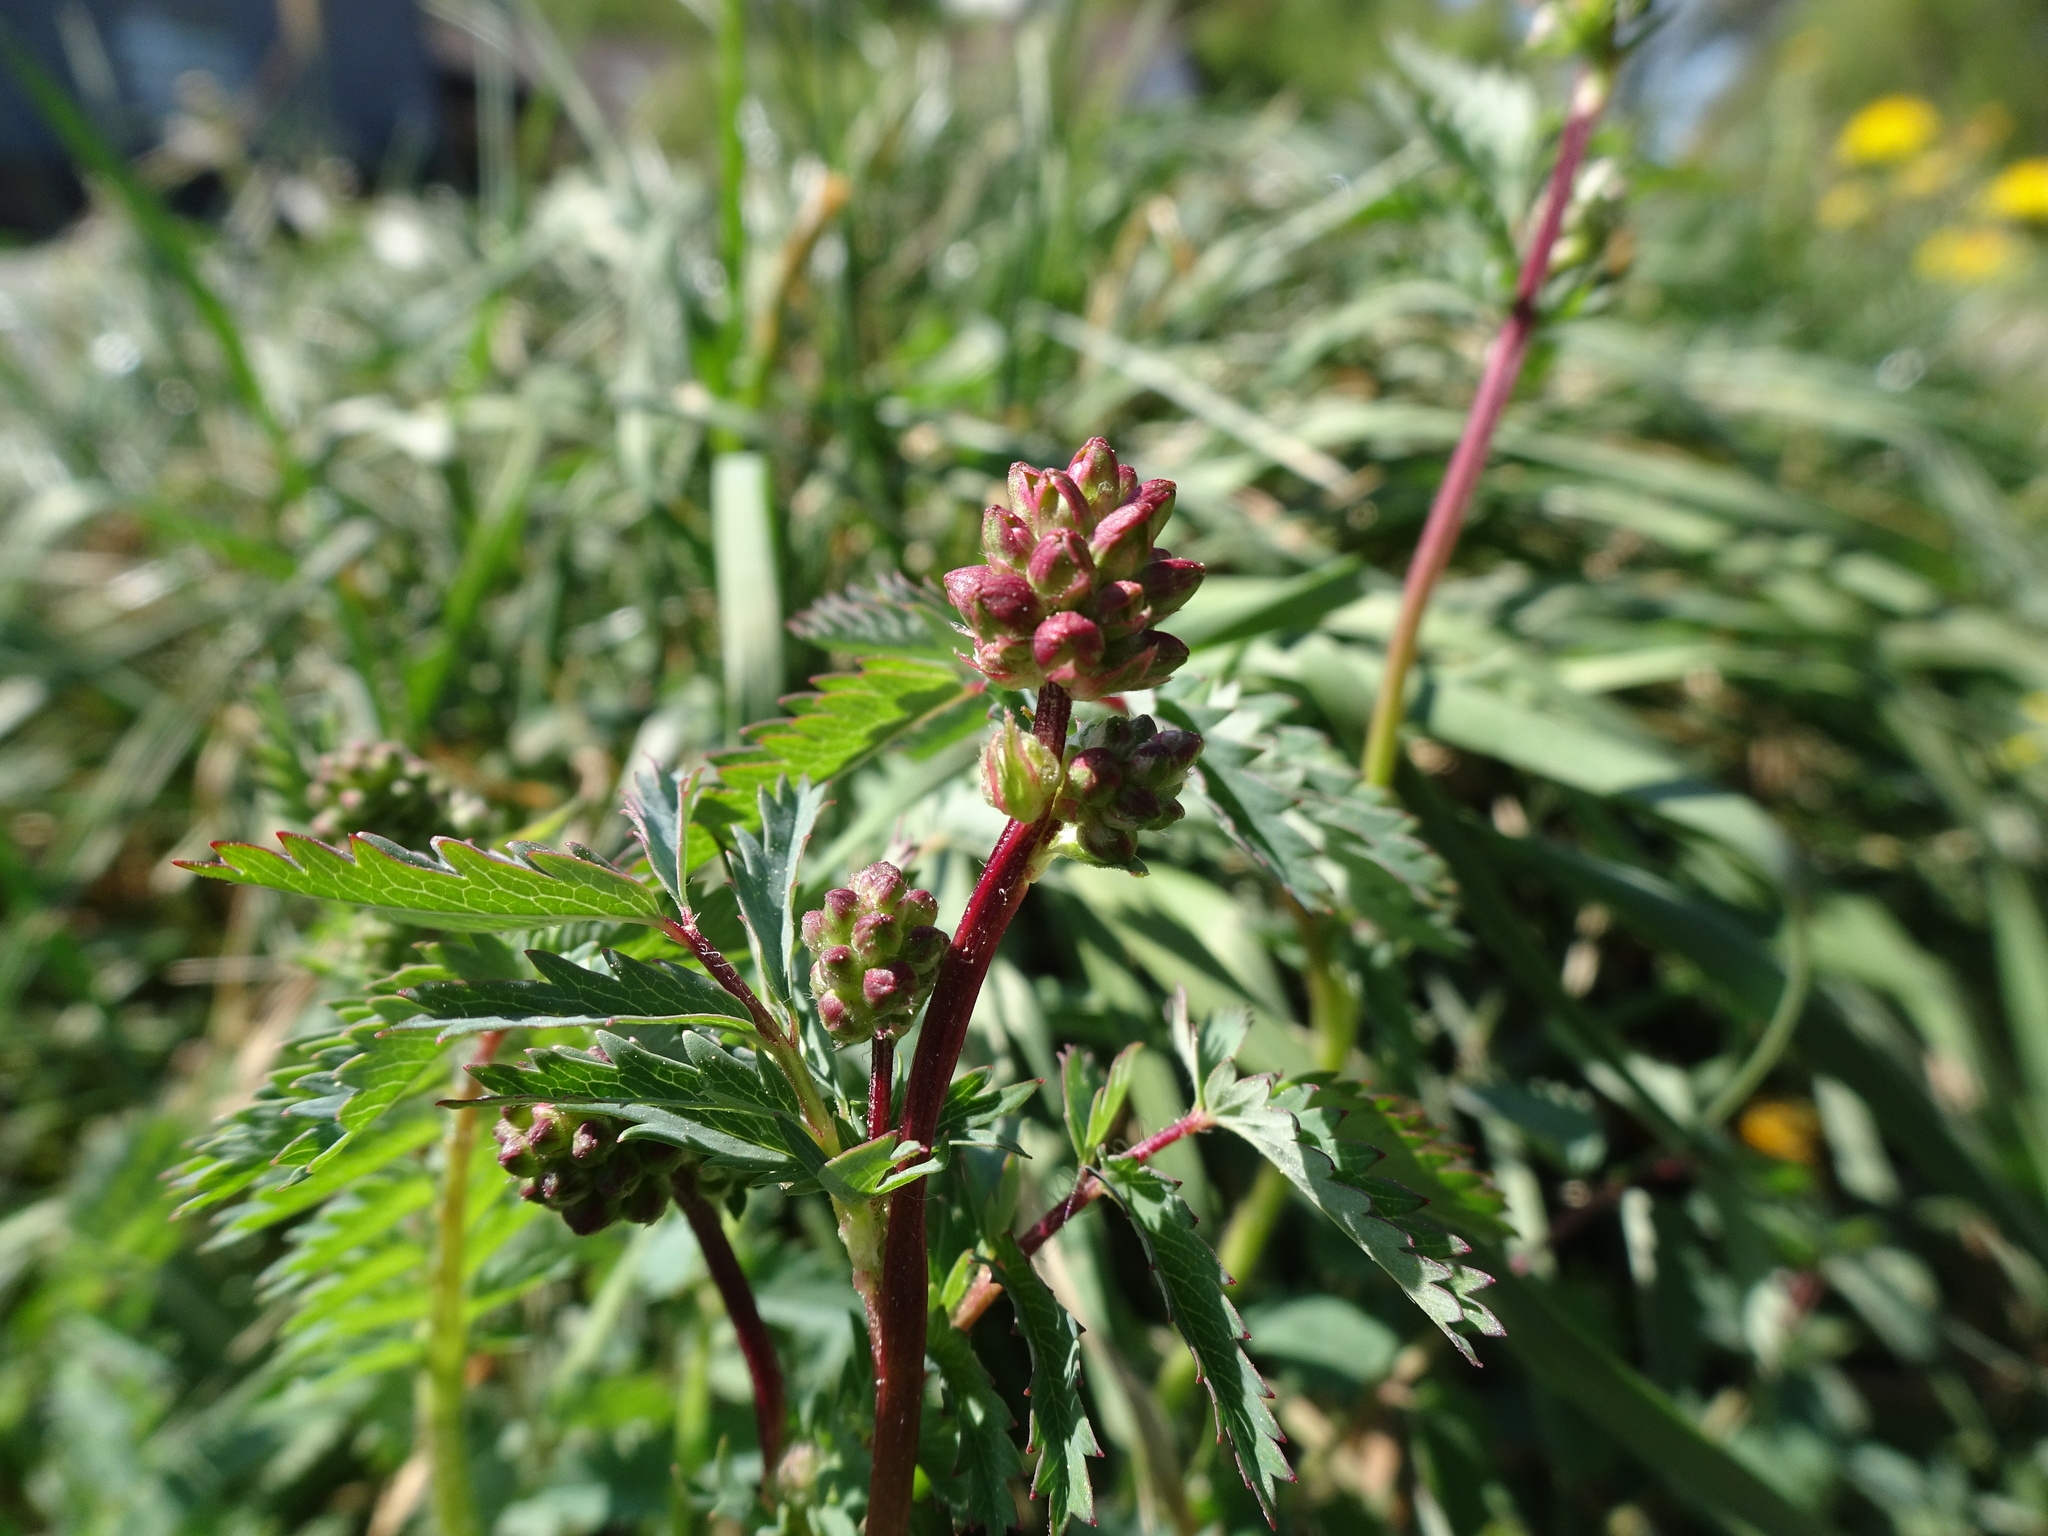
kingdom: Plantae
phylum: Tracheophyta
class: Magnoliopsida
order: Rosales
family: Rosaceae
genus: Poterium
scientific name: Poterium sanguisorba
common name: Salad burnet
